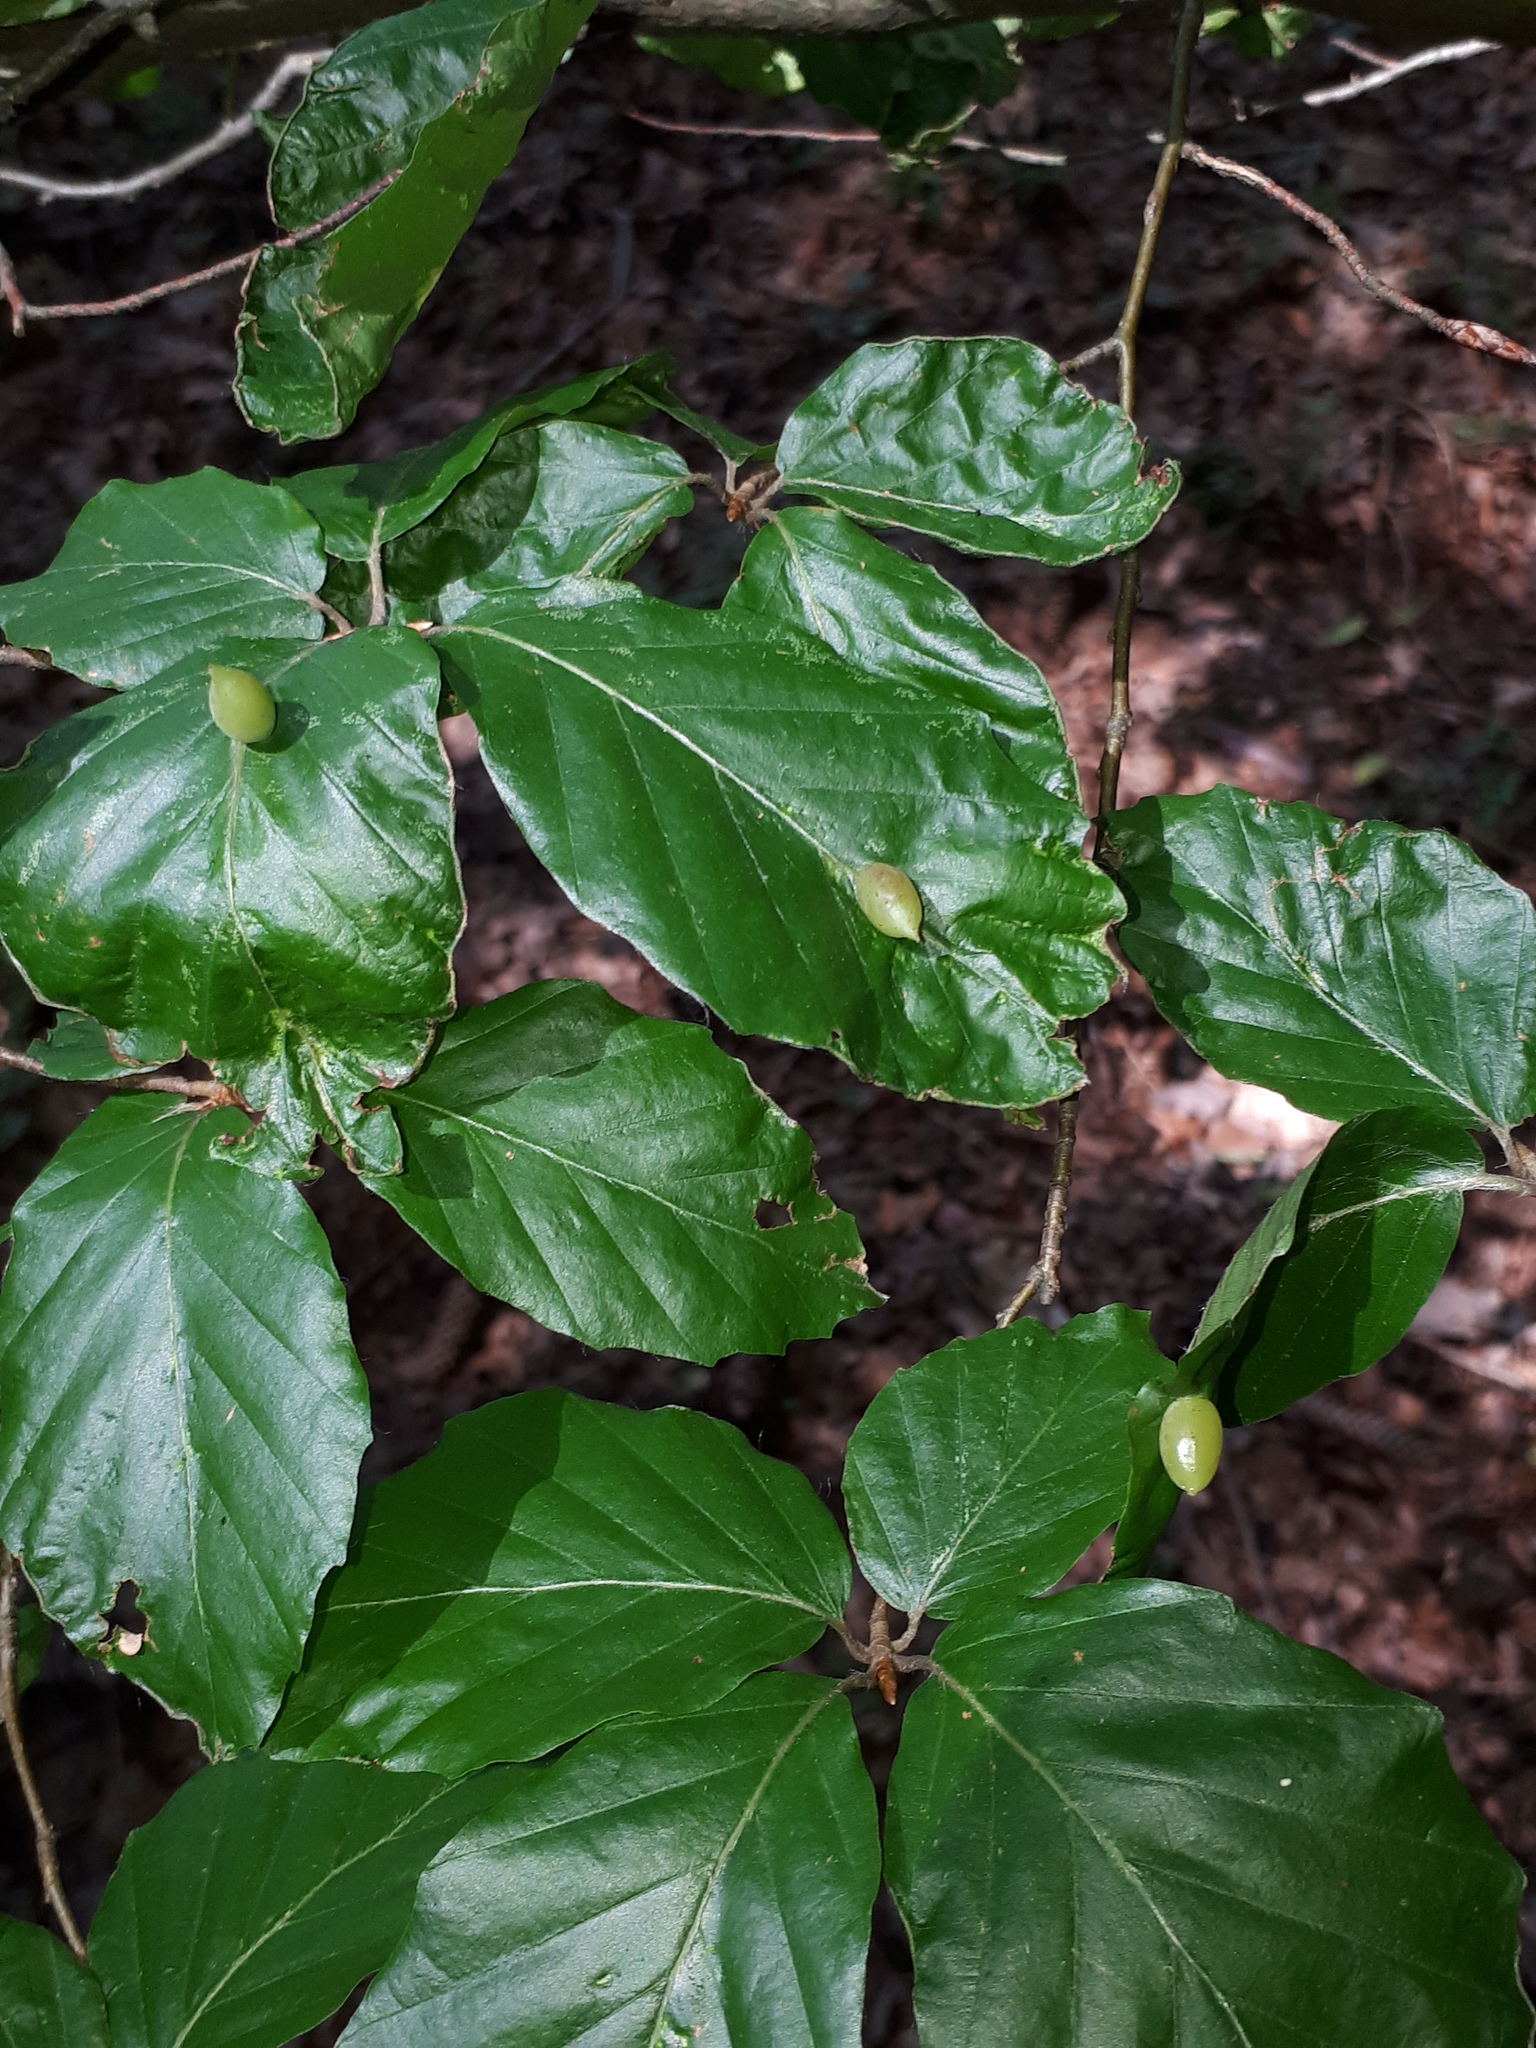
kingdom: Animalia
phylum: Arthropoda
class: Insecta
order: Diptera
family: Cecidomyiidae
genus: Mikiola
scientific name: Mikiola fagi
